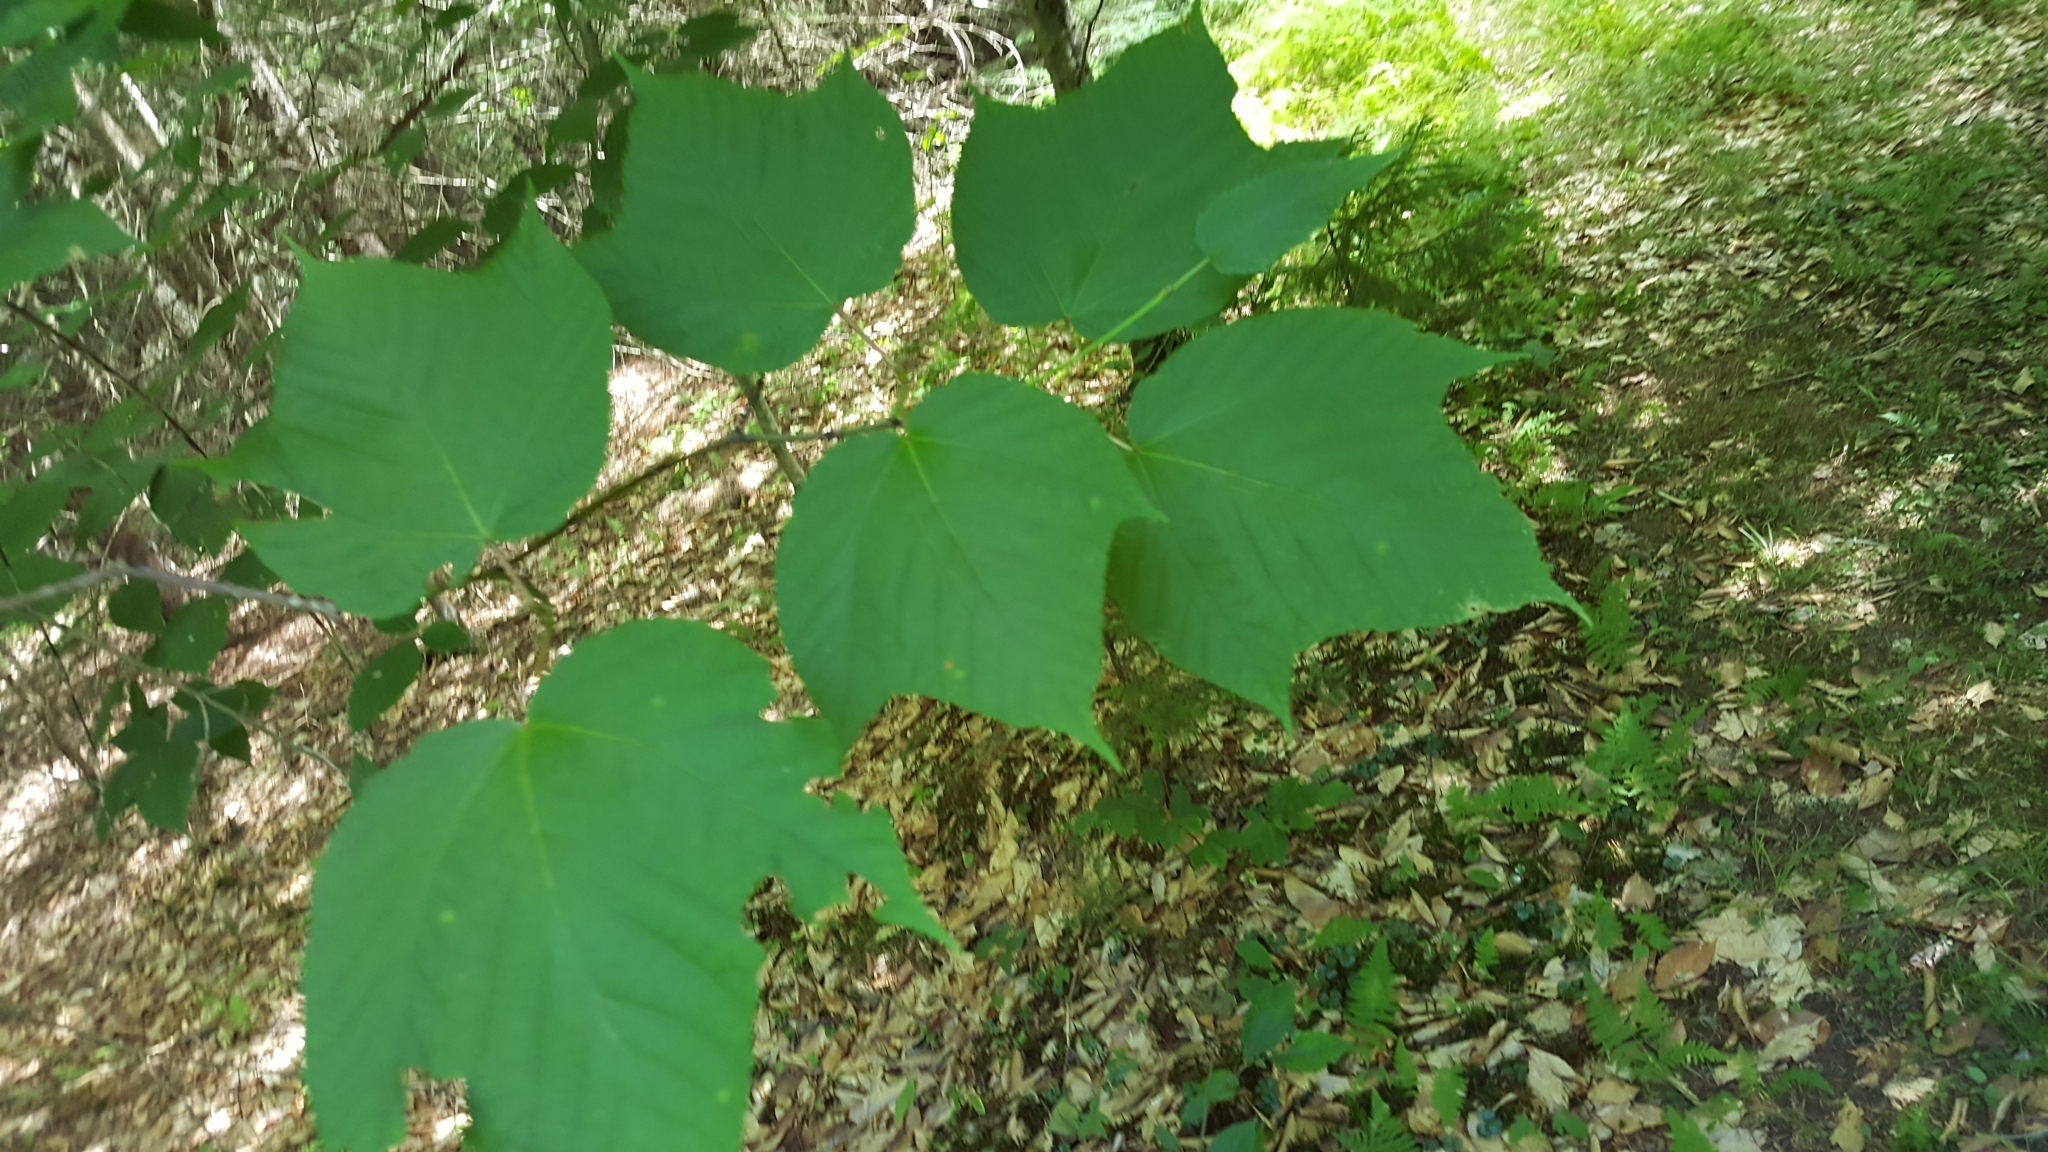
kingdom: Plantae
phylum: Tracheophyta
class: Magnoliopsida
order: Sapindales
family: Sapindaceae
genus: Acer
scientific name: Acer pensylvanicum
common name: Moosewood
